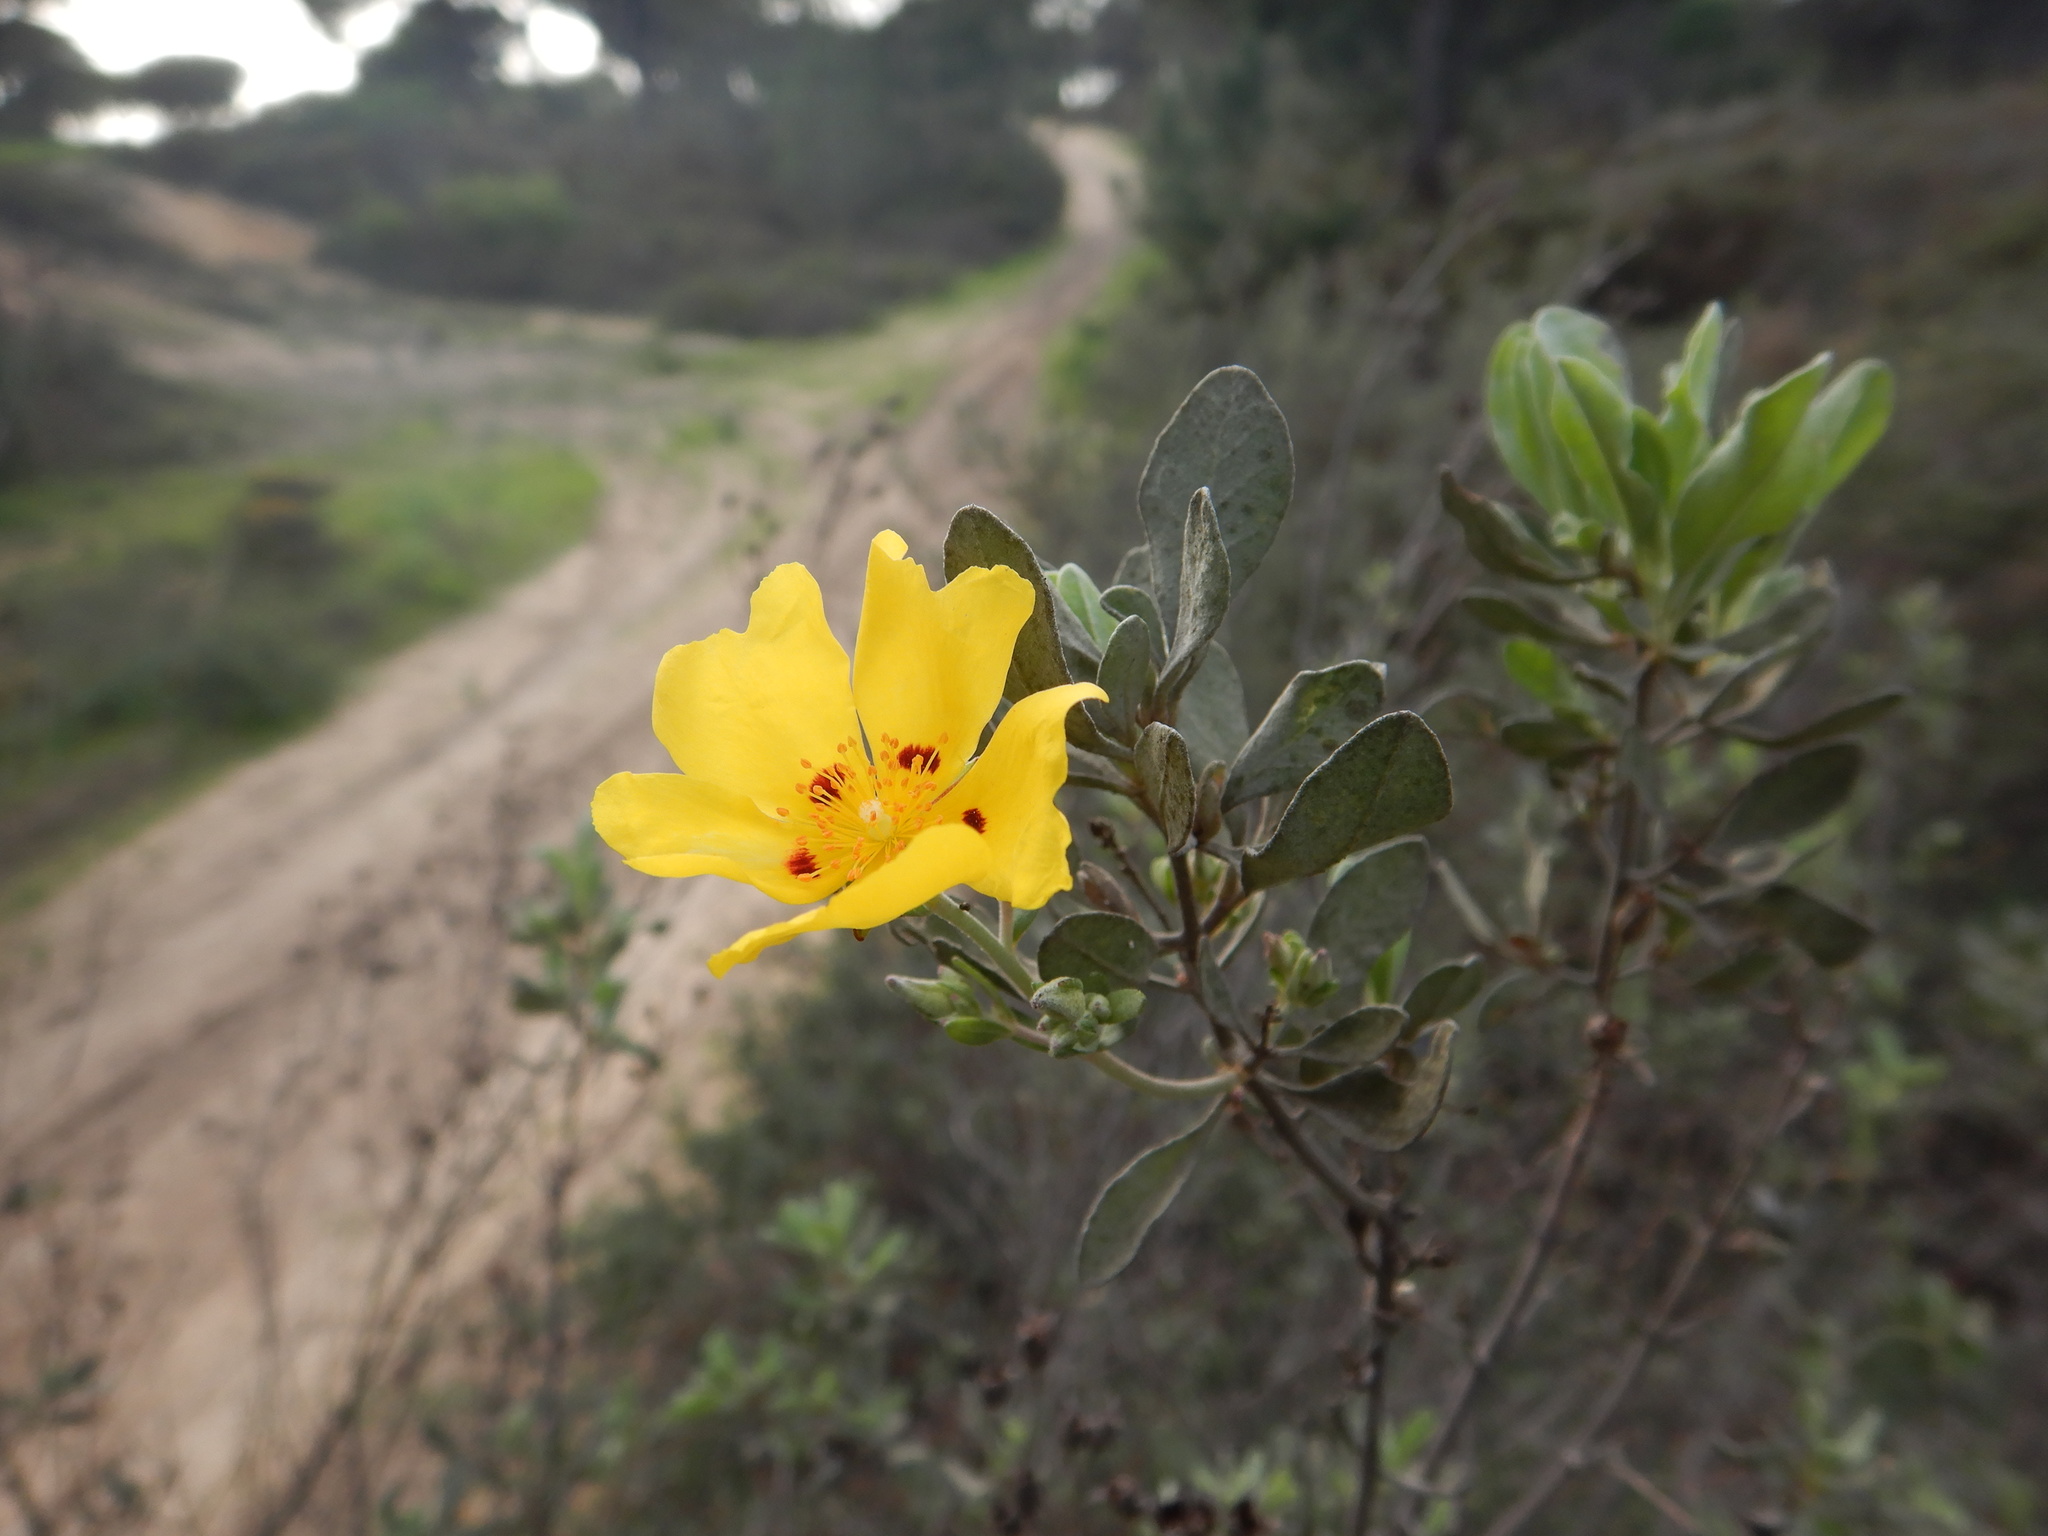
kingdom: Plantae
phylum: Tracheophyta
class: Magnoliopsida
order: Malvales
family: Cistaceae
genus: Halimium
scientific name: Halimium halimifolium
